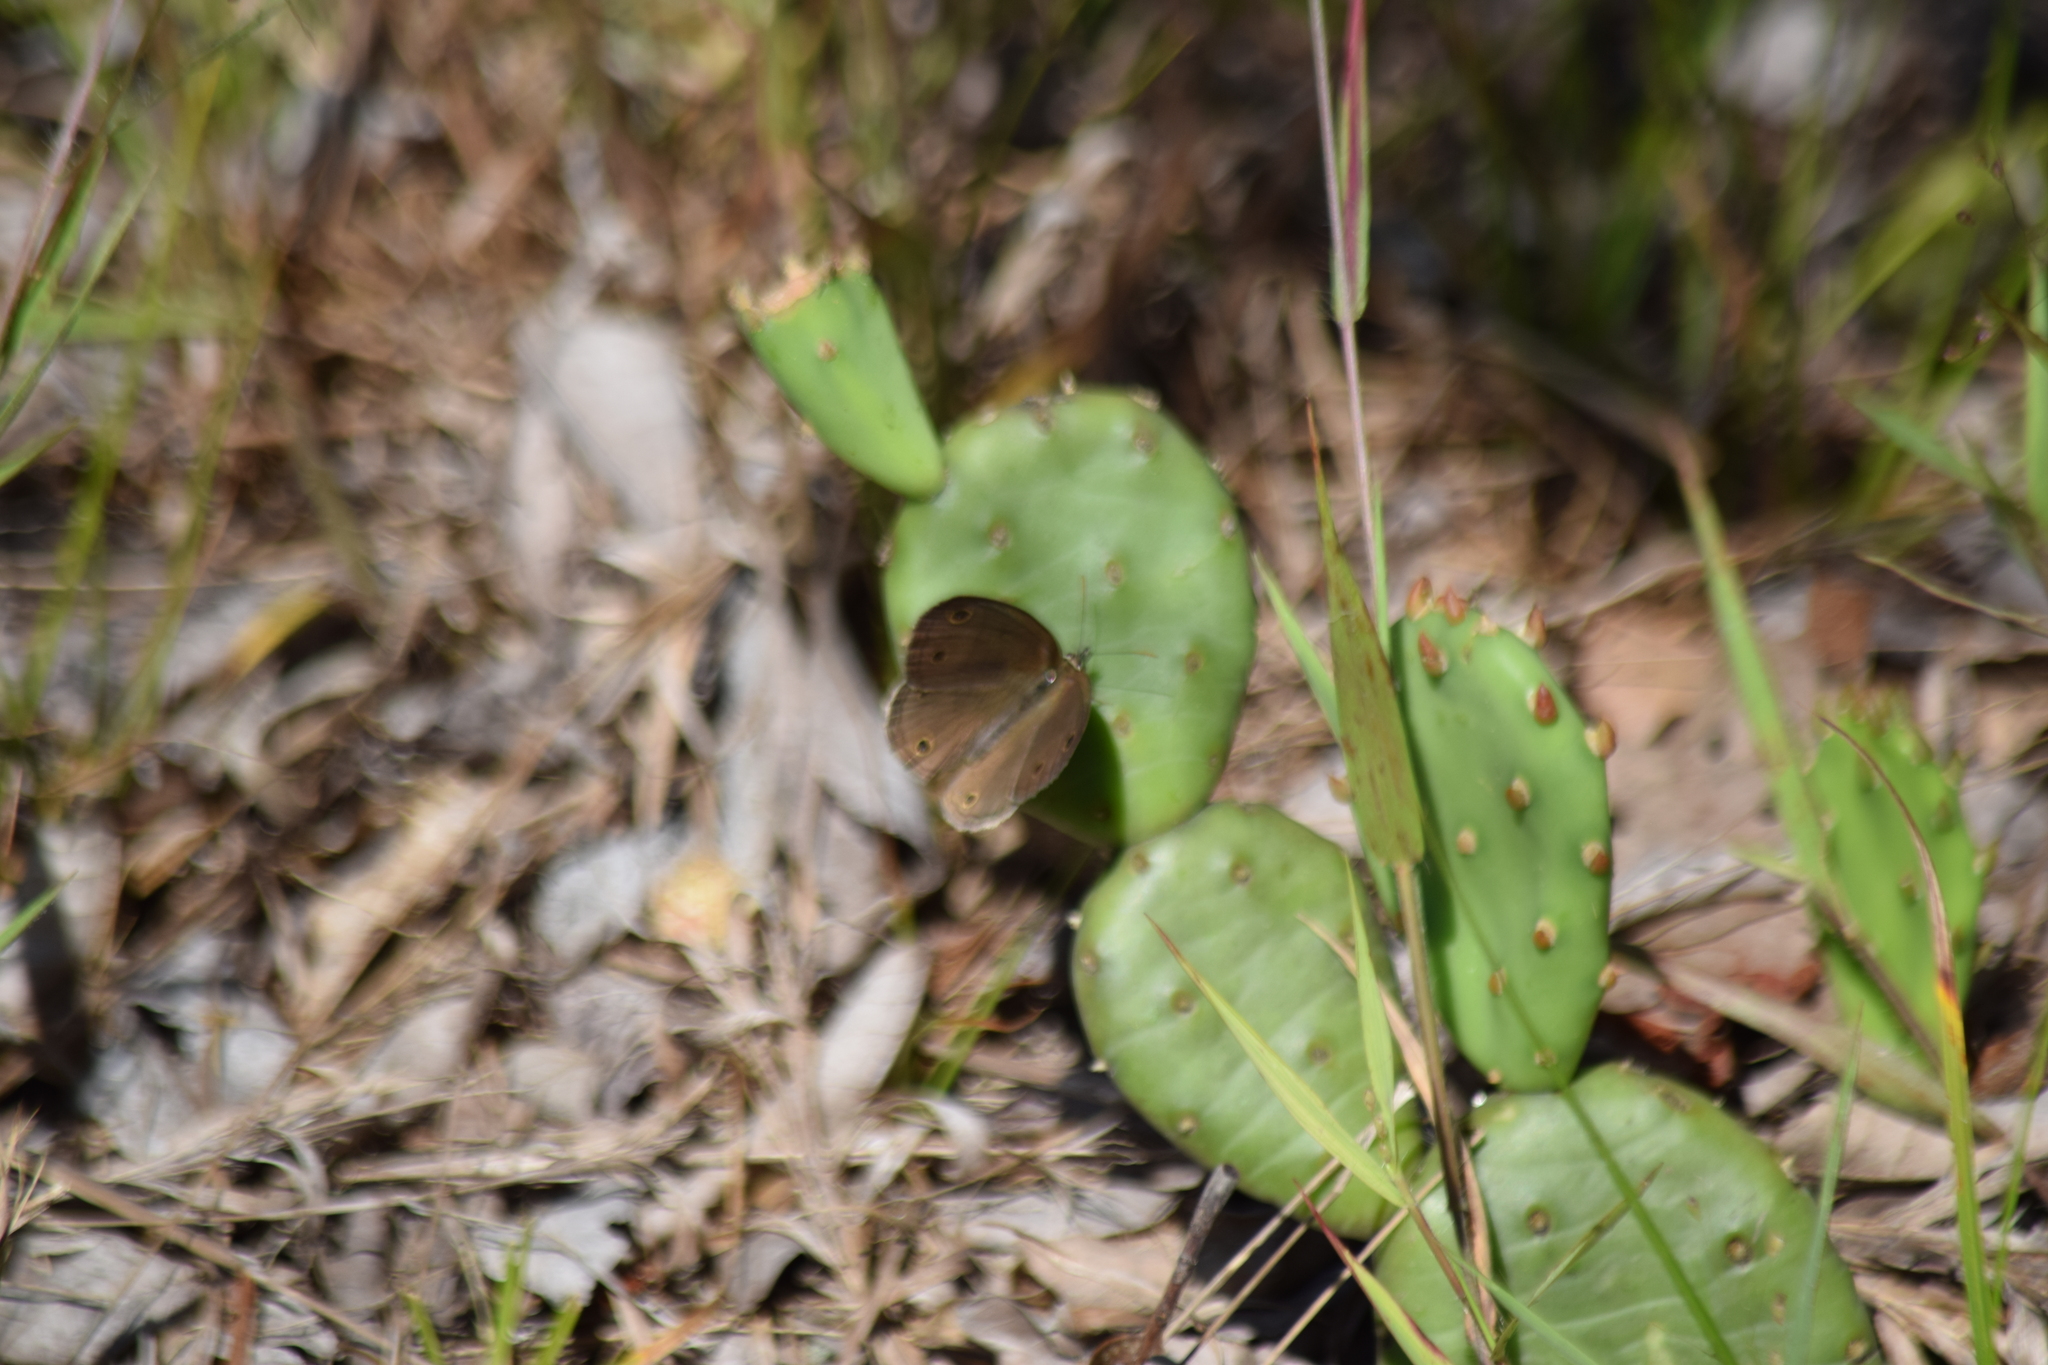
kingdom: Animalia
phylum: Arthropoda
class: Insecta
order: Lepidoptera
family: Nymphalidae
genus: Euptychia
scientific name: Euptychia cymela
